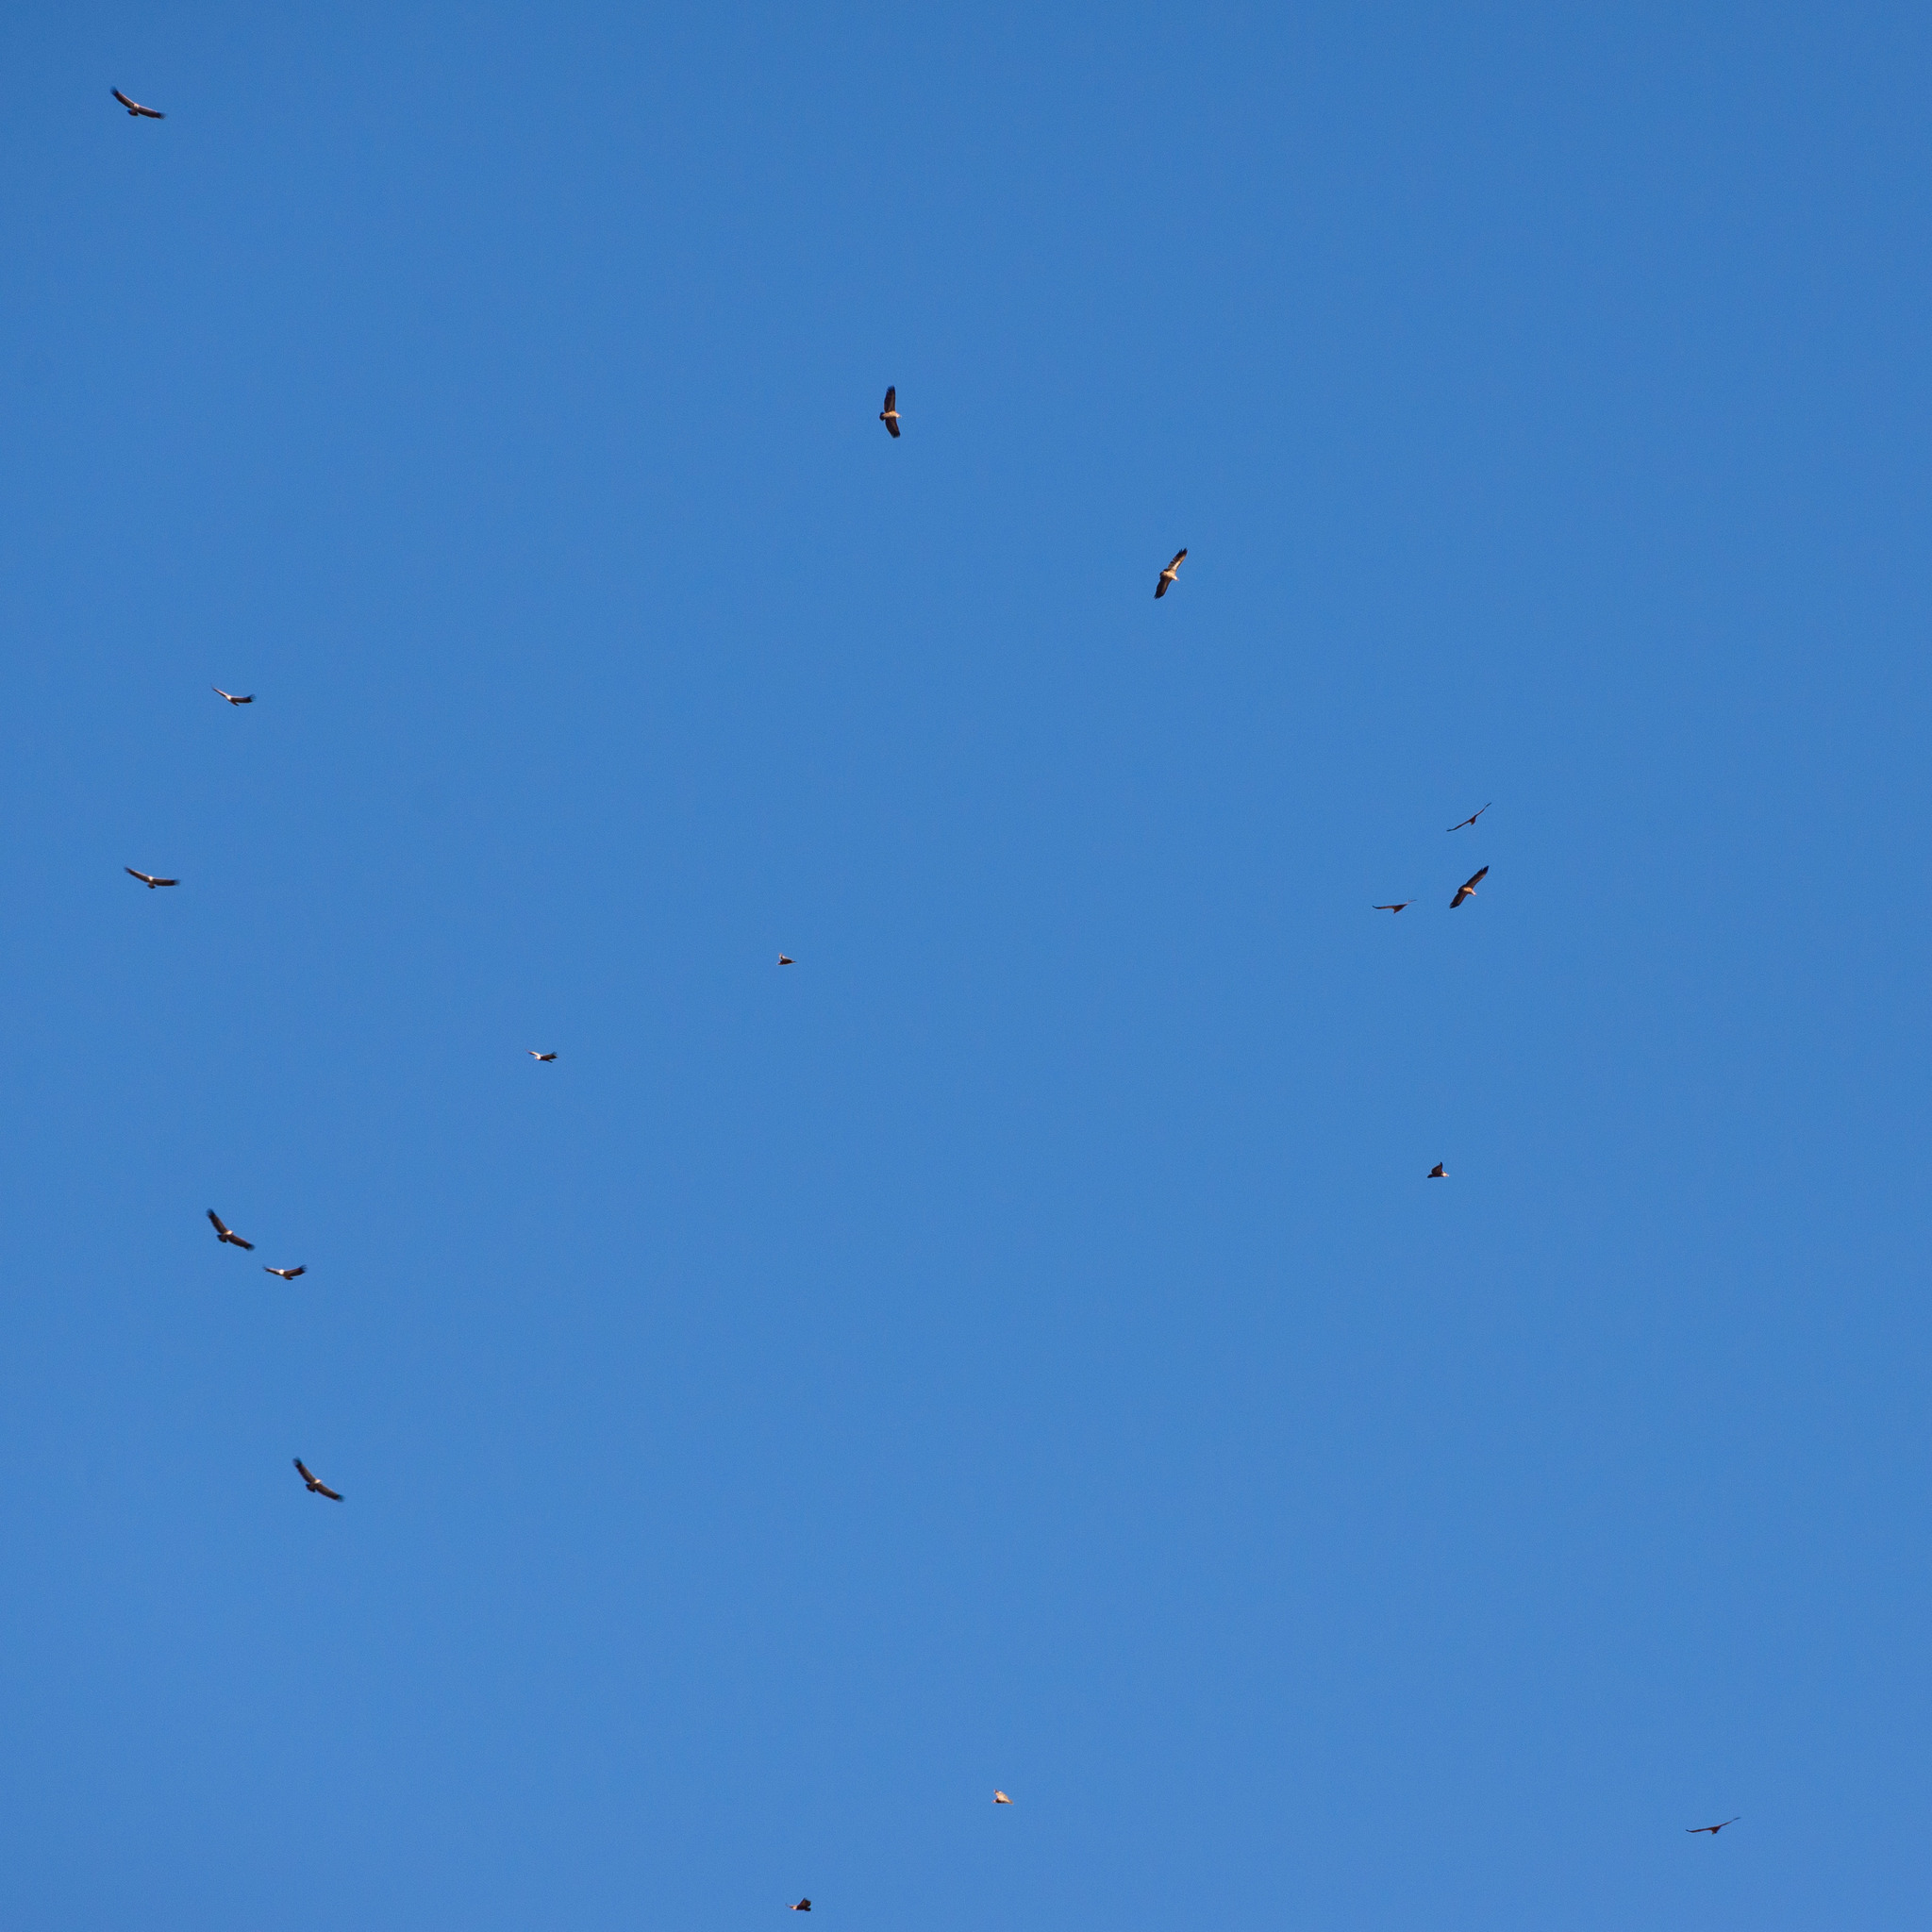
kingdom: Animalia
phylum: Chordata
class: Aves
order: Accipitriformes
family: Accipitridae
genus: Gyps
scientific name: Gyps fulvus
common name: Griffon vulture
